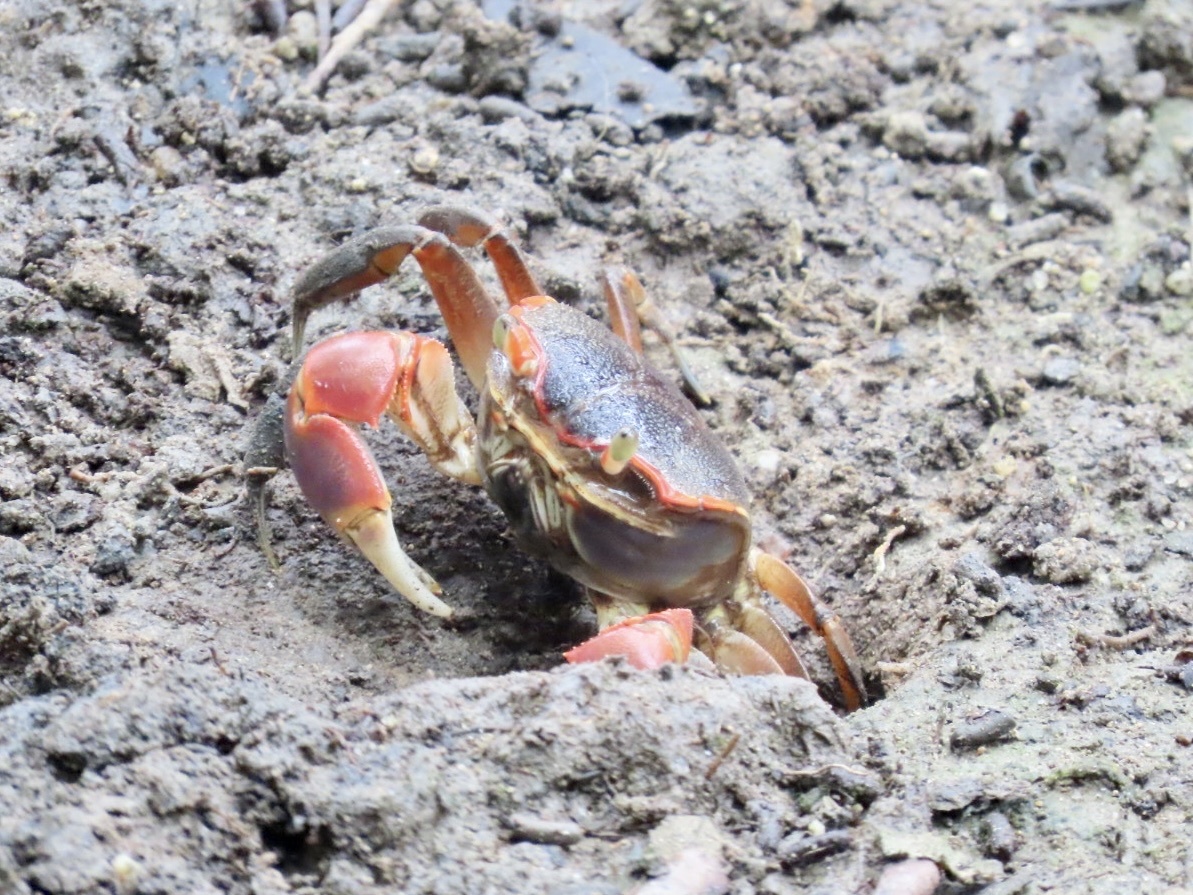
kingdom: Animalia
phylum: Arthropoda
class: Malacostraca
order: Decapoda
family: Varunidae
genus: Chasmagnathus
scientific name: Chasmagnathus convexus
